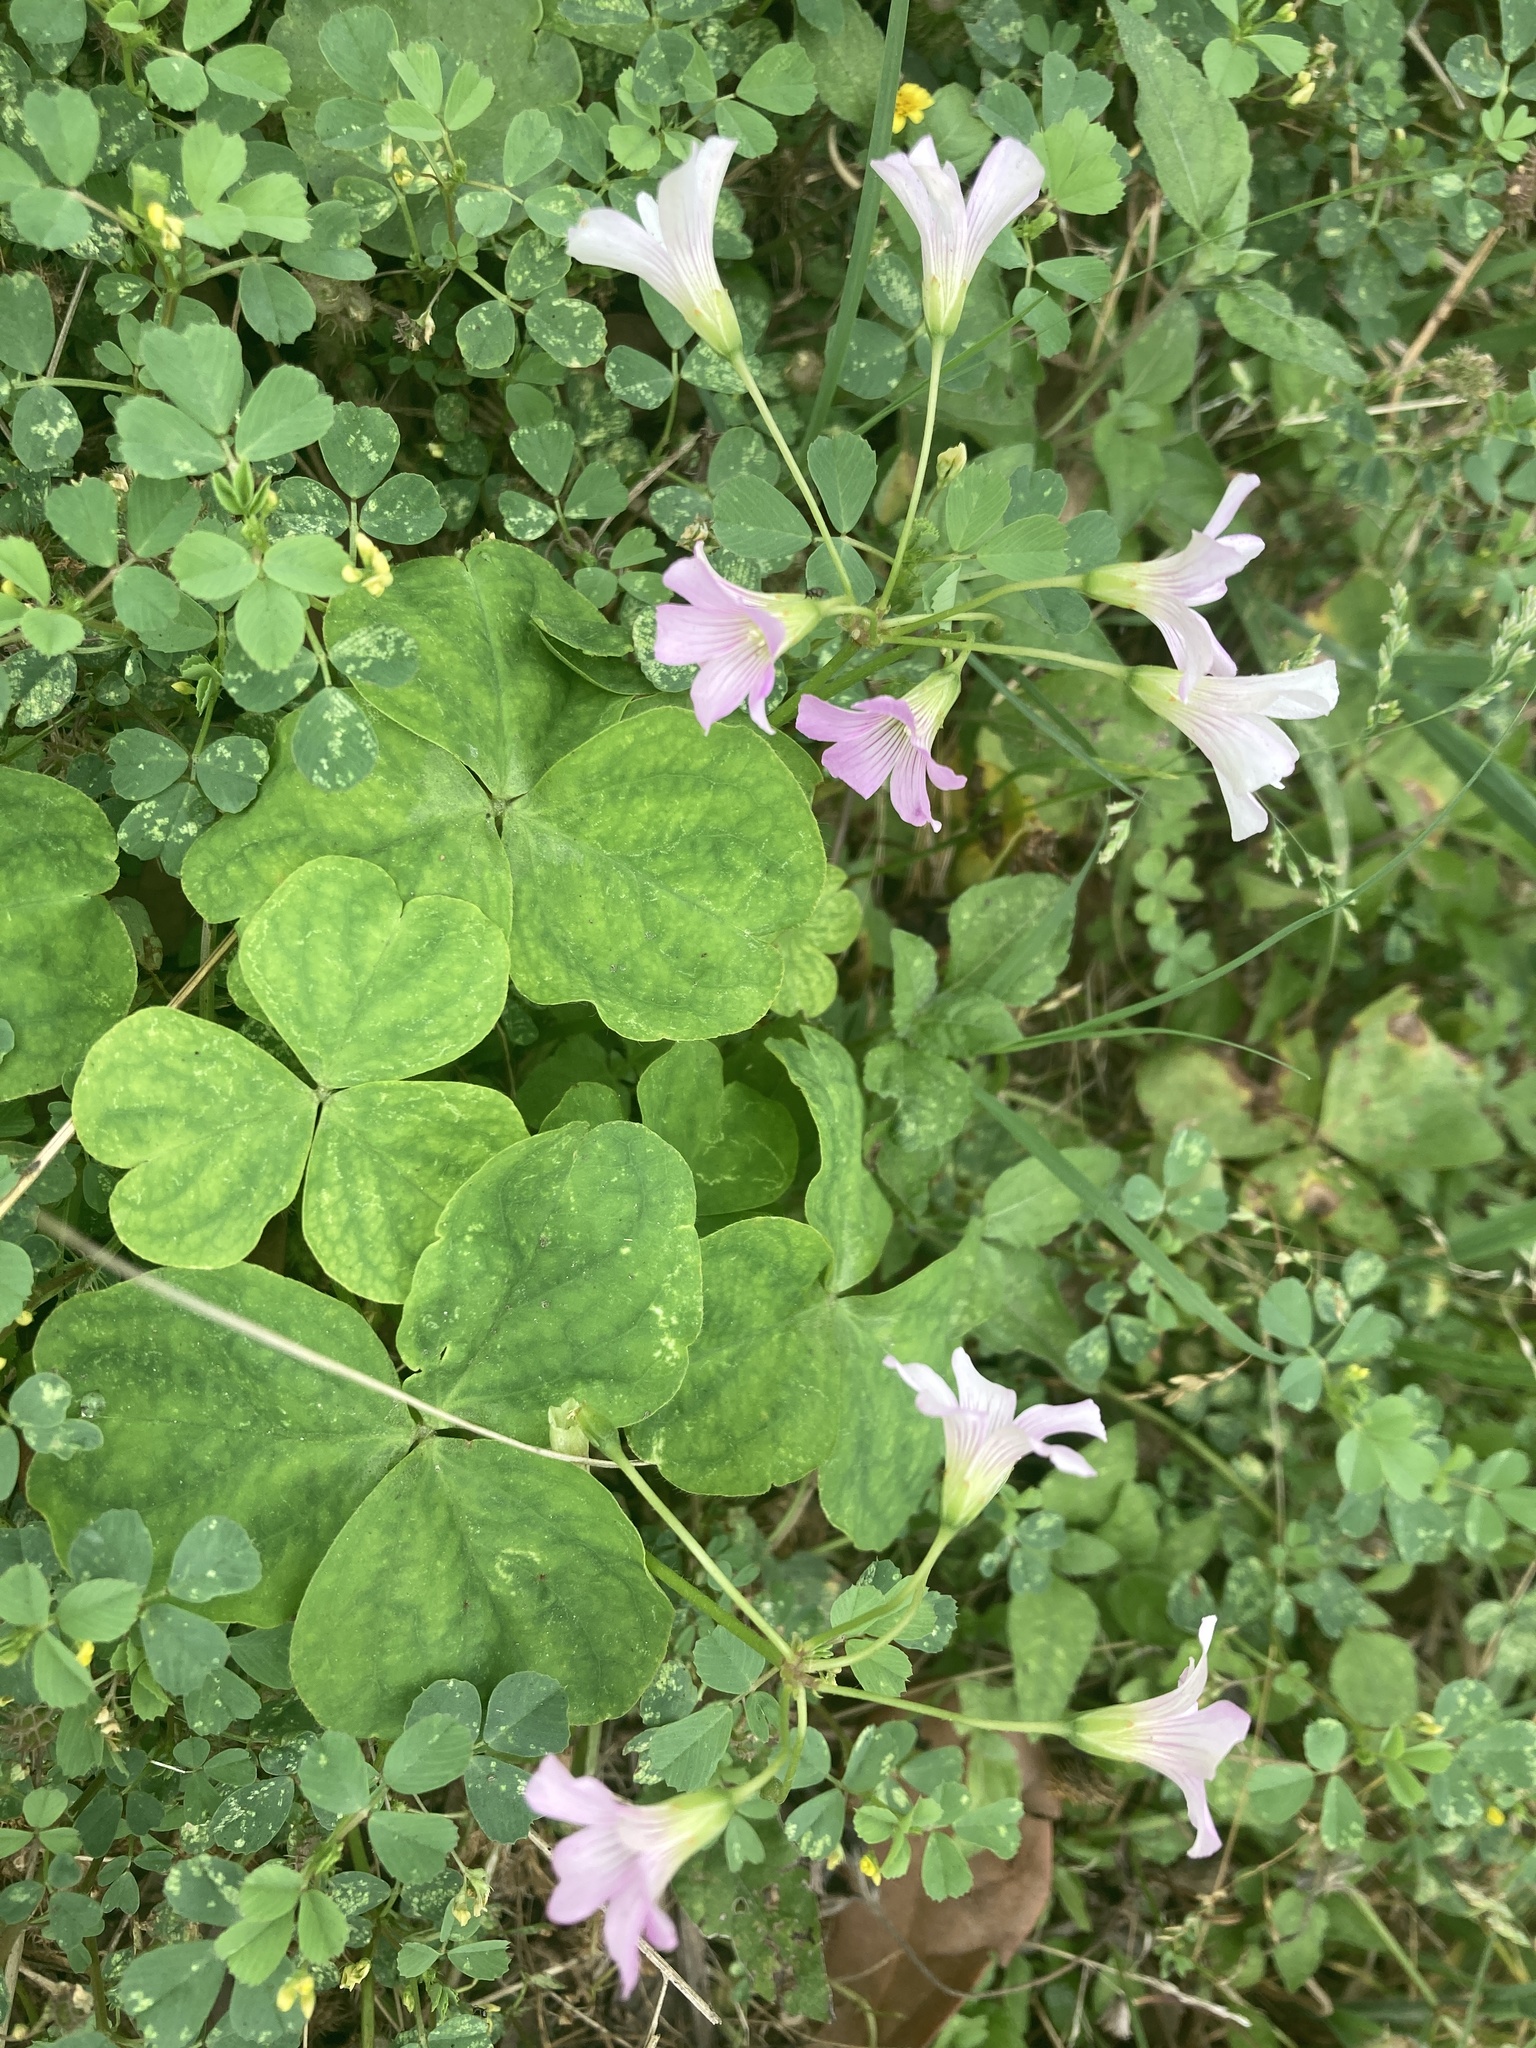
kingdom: Plantae
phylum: Tracheophyta
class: Magnoliopsida
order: Oxalidales
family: Oxalidaceae
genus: Oxalis
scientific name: Oxalis debilis
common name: Large-flowered pink-sorrel
